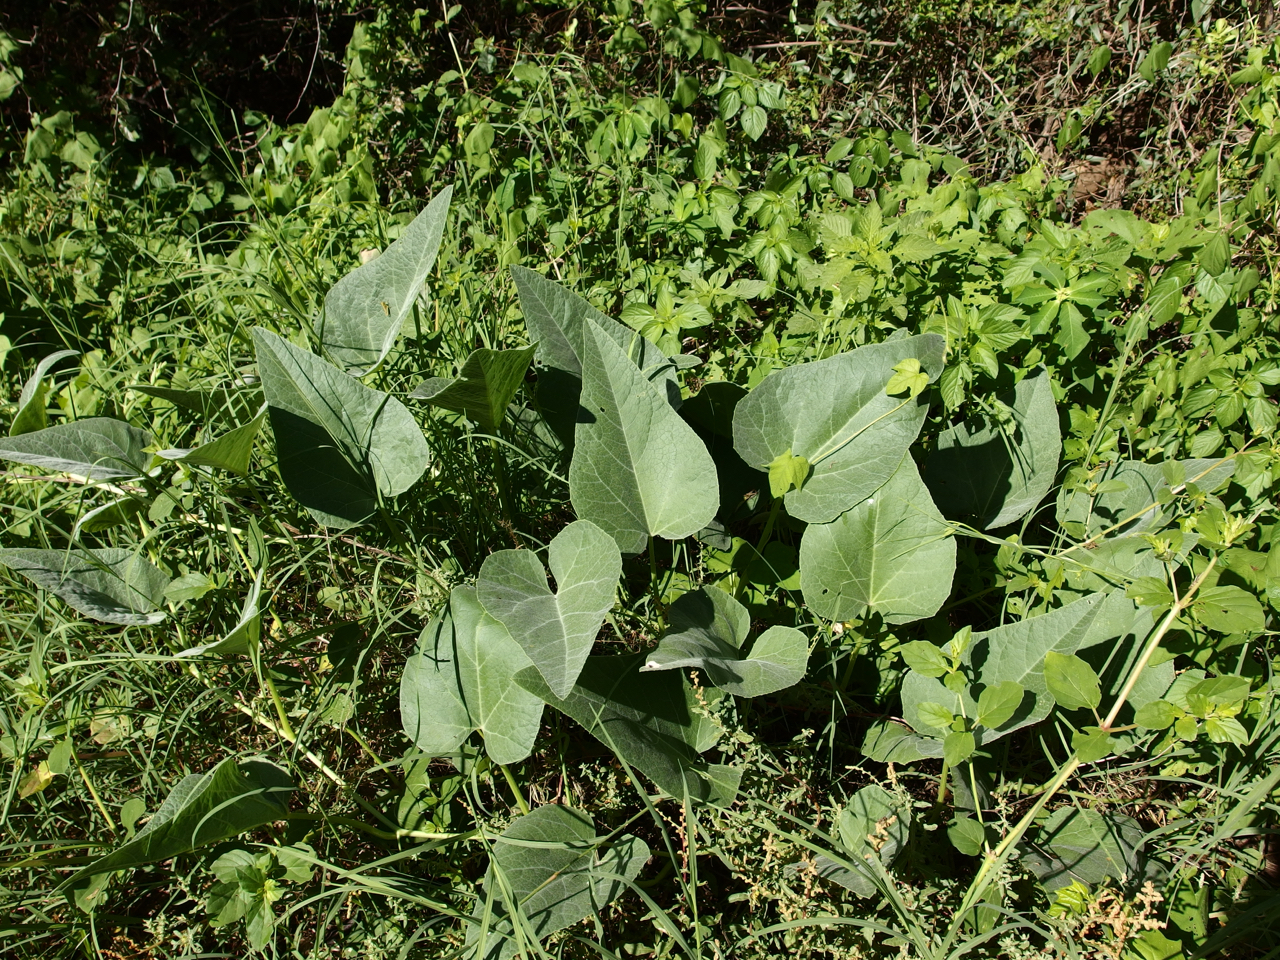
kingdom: Plantae
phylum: Tracheophyta
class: Magnoliopsida
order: Cucurbitales
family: Cucurbitaceae
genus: Cucurbita
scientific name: Cucurbita foetidissima
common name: Buffalo gourd
